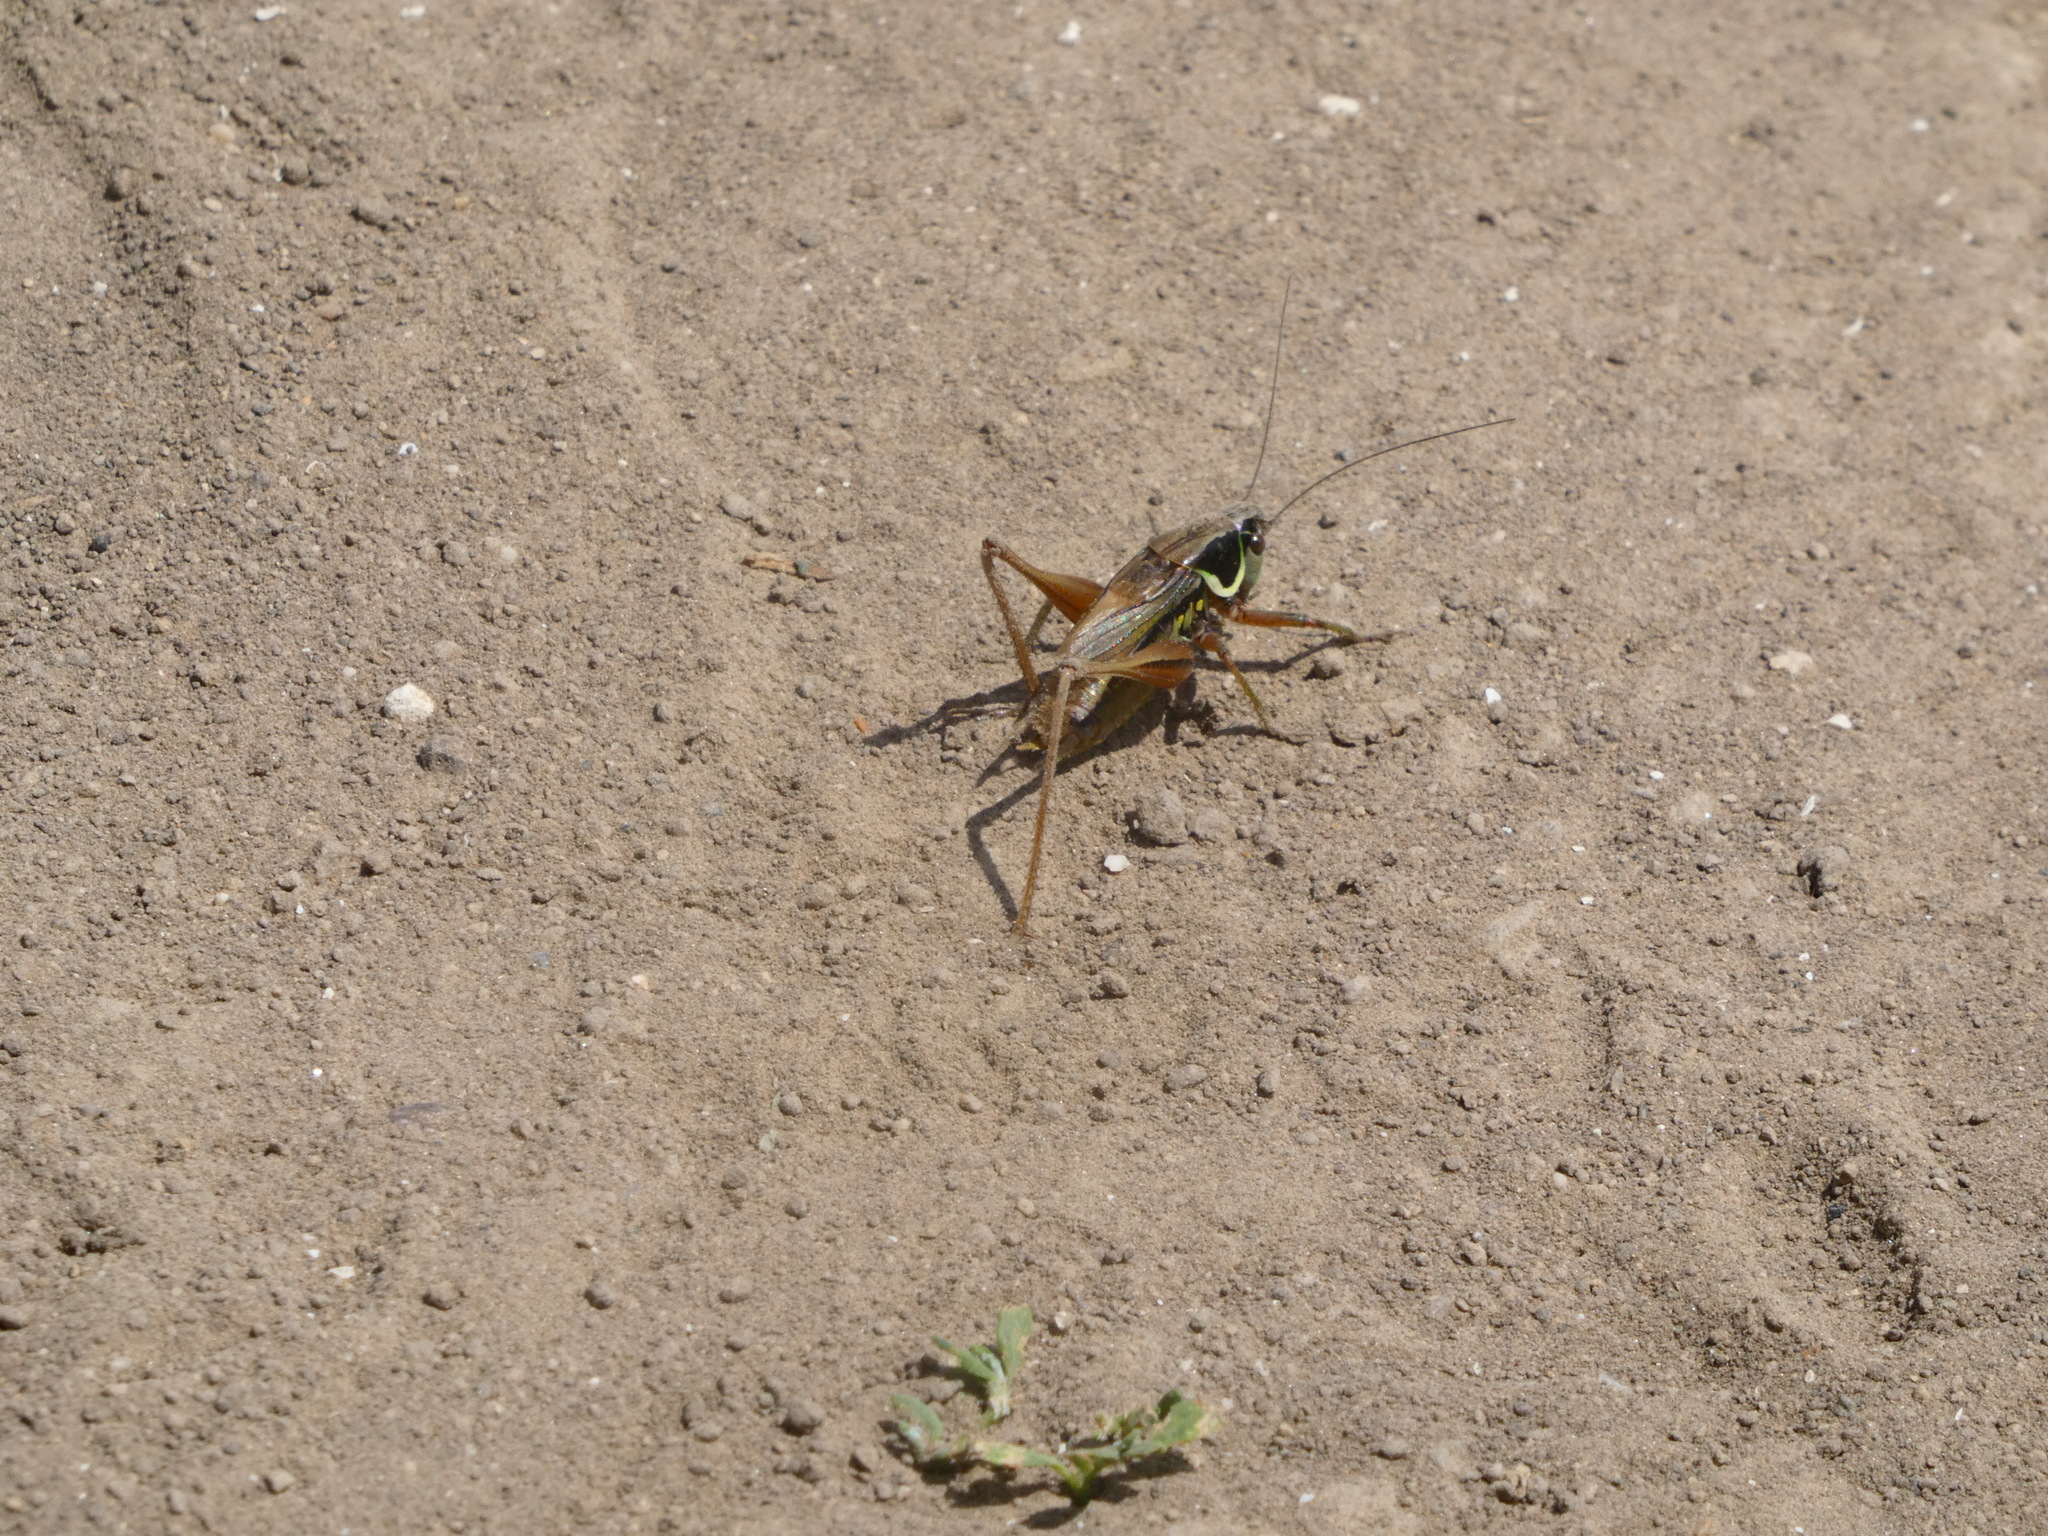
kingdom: Animalia
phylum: Arthropoda
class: Insecta
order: Orthoptera
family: Tettigoniidae
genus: Roeseliana
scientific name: Roeseliana roeselii
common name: Roesel's bush cricket
